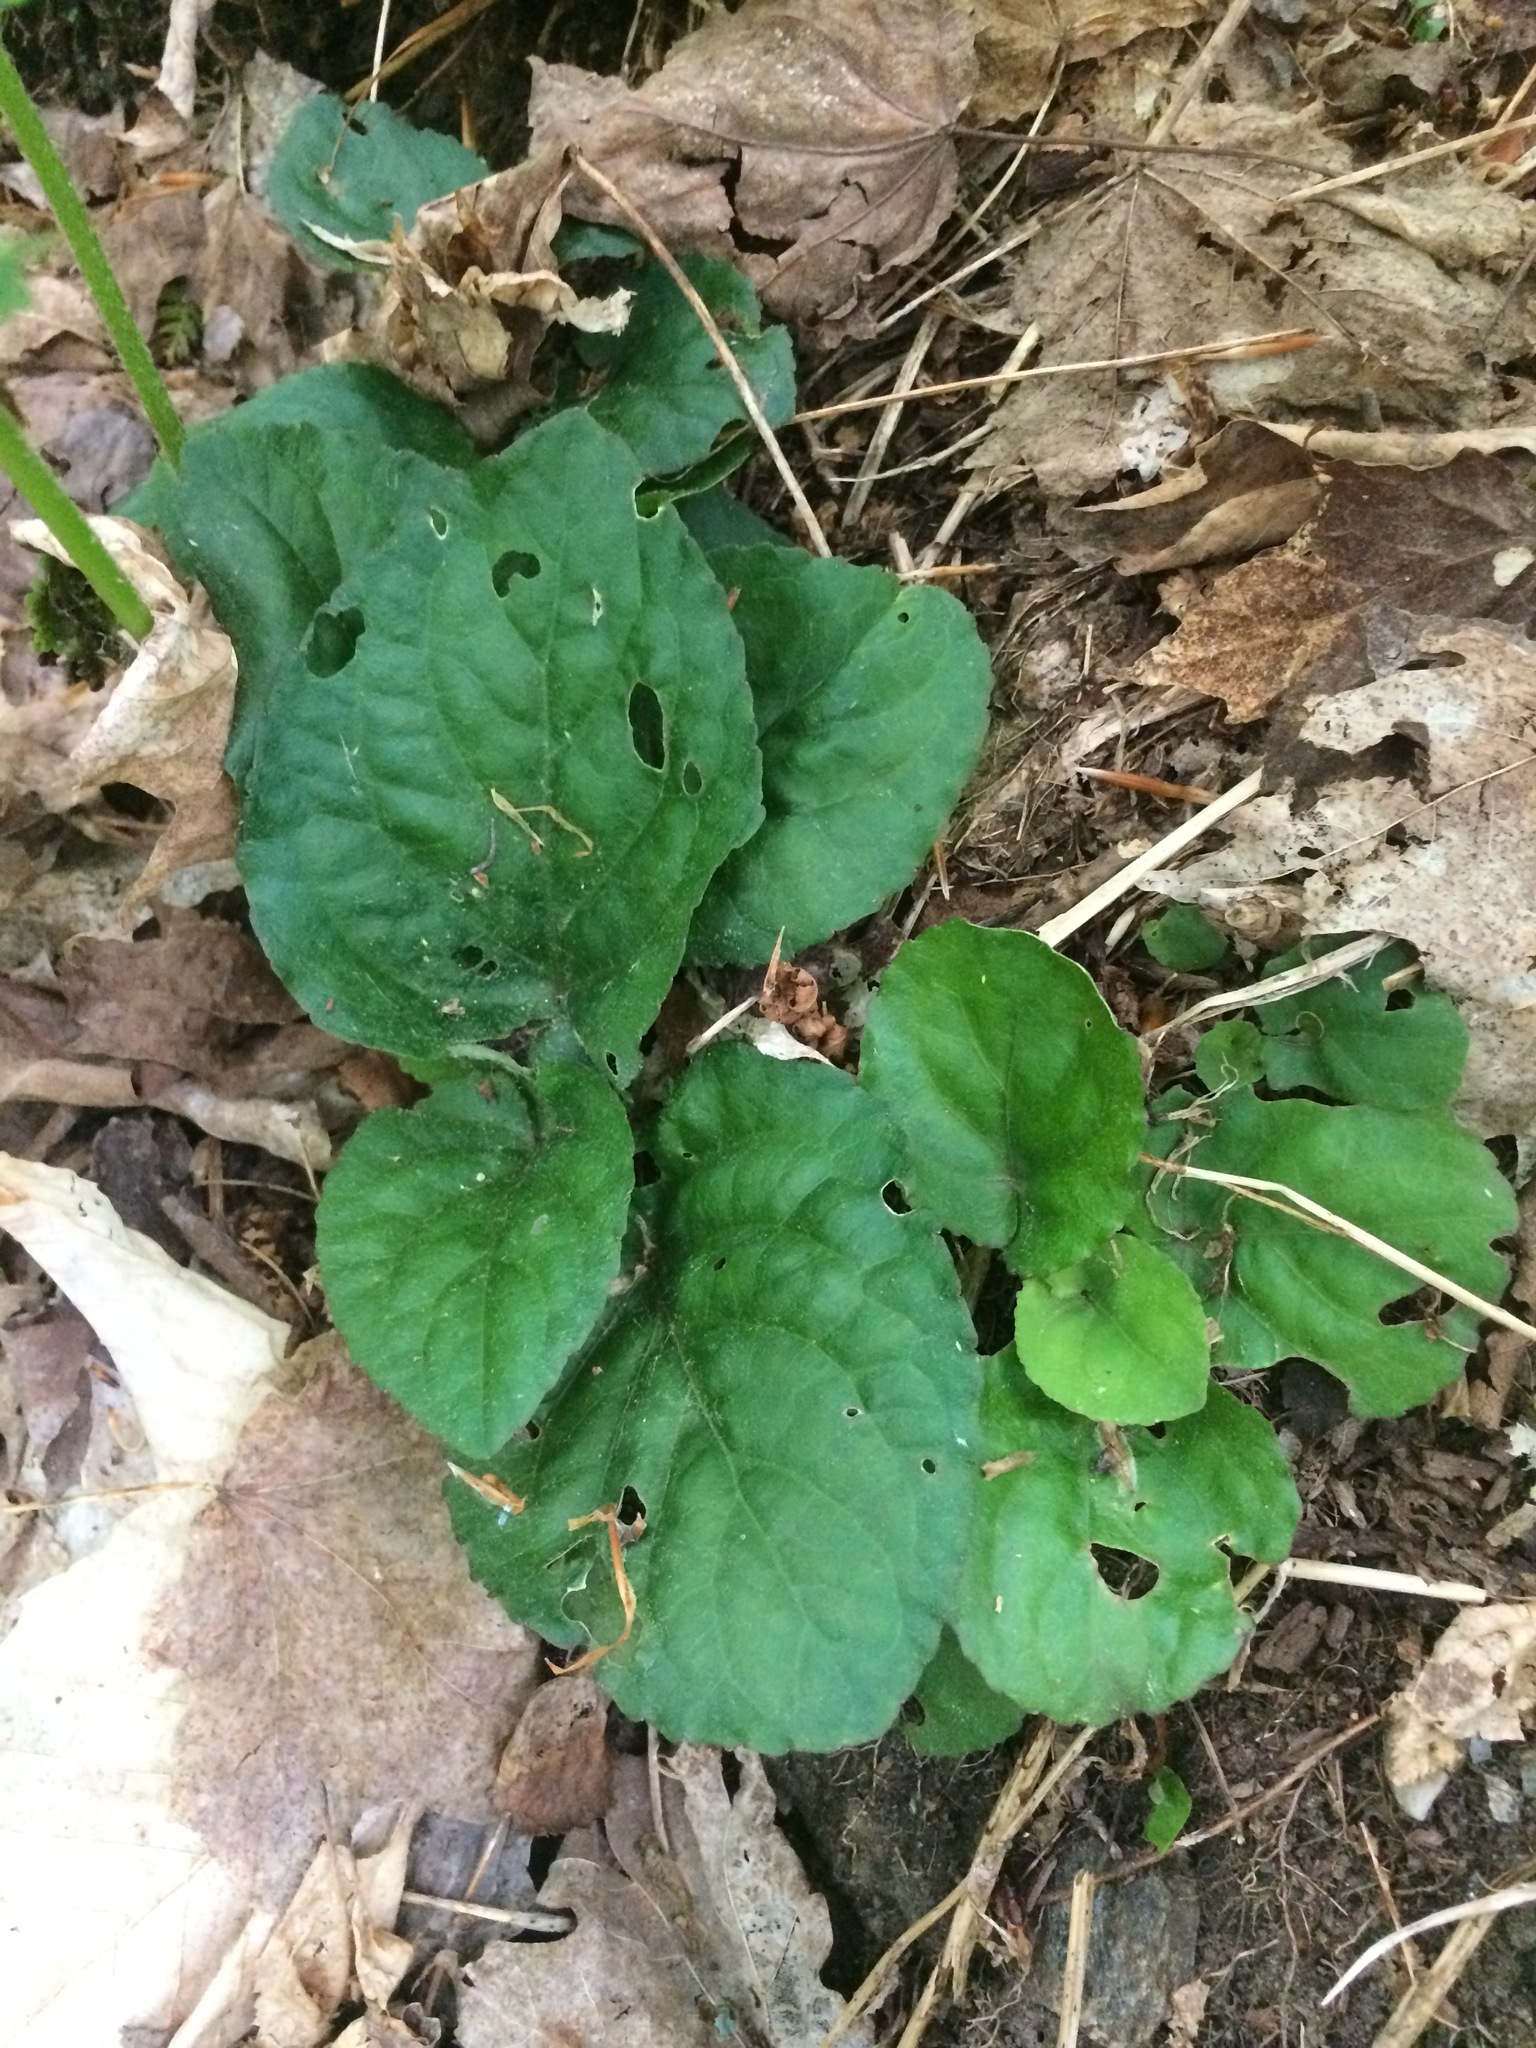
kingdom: Plantae
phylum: Tracheophyta
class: Magnoliopsida
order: Malpighiales
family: Violaceae
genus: Viola
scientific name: Viola rotundifolia
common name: Early yellow violet
